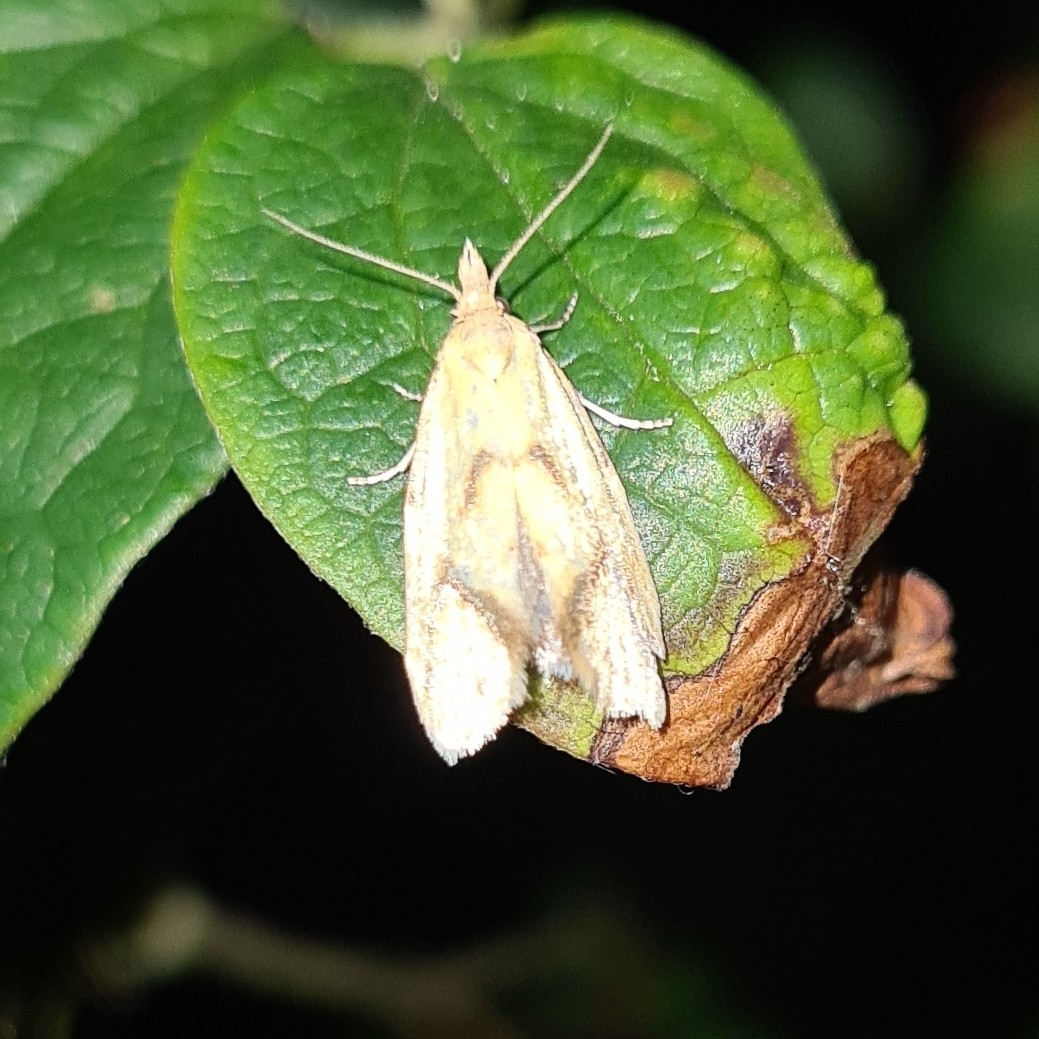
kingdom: Animalia
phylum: Arthropoda
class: Insecta
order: Lepidoptera
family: Tortricidae
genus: Agapeta
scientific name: Agapeta hamana
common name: Common yellow conch
